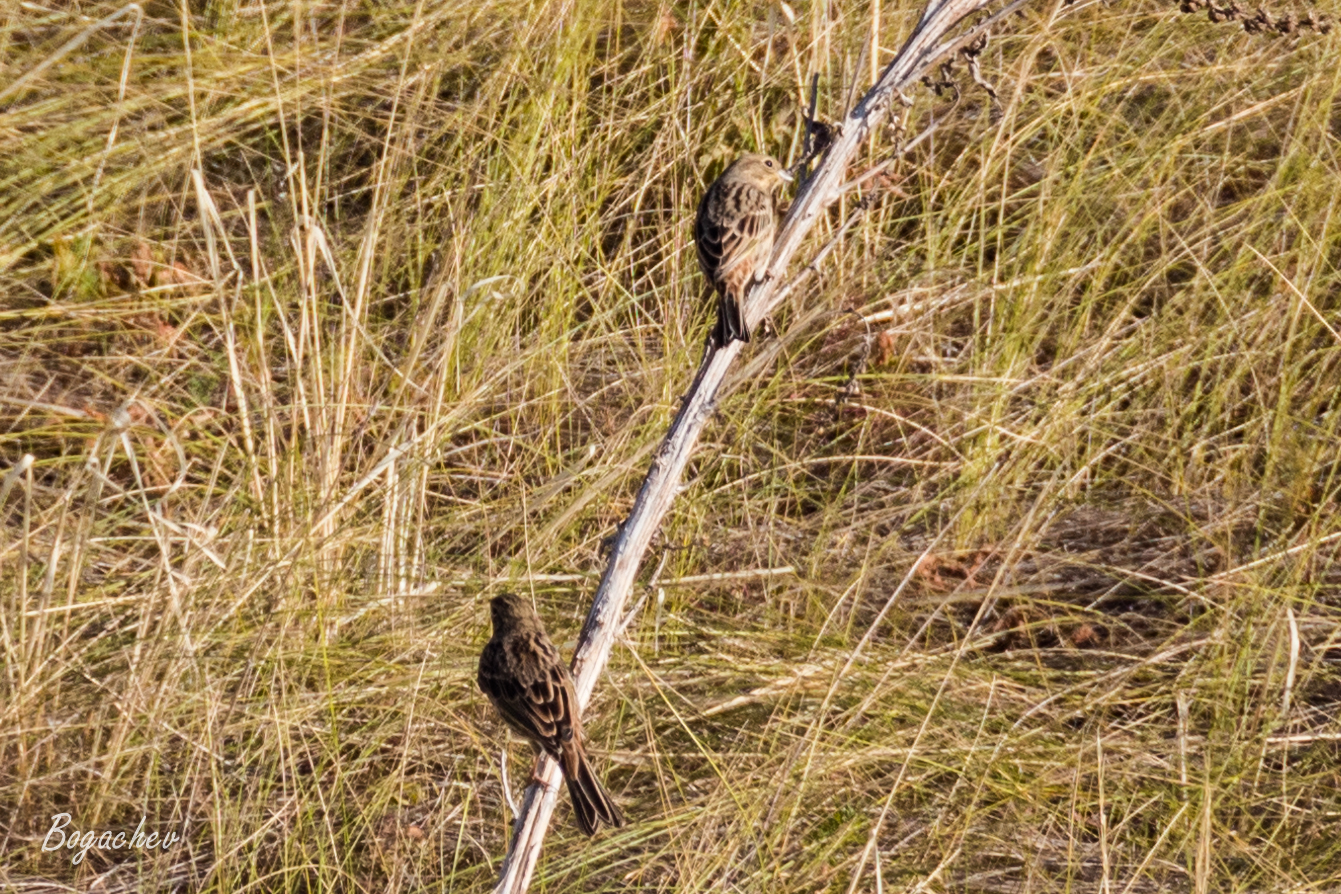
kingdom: Animalia
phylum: Chordata
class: Aves
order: Passeriformes
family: Emberizidae
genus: Emberiza
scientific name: Emberiza citrinella
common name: Yellowhammer
